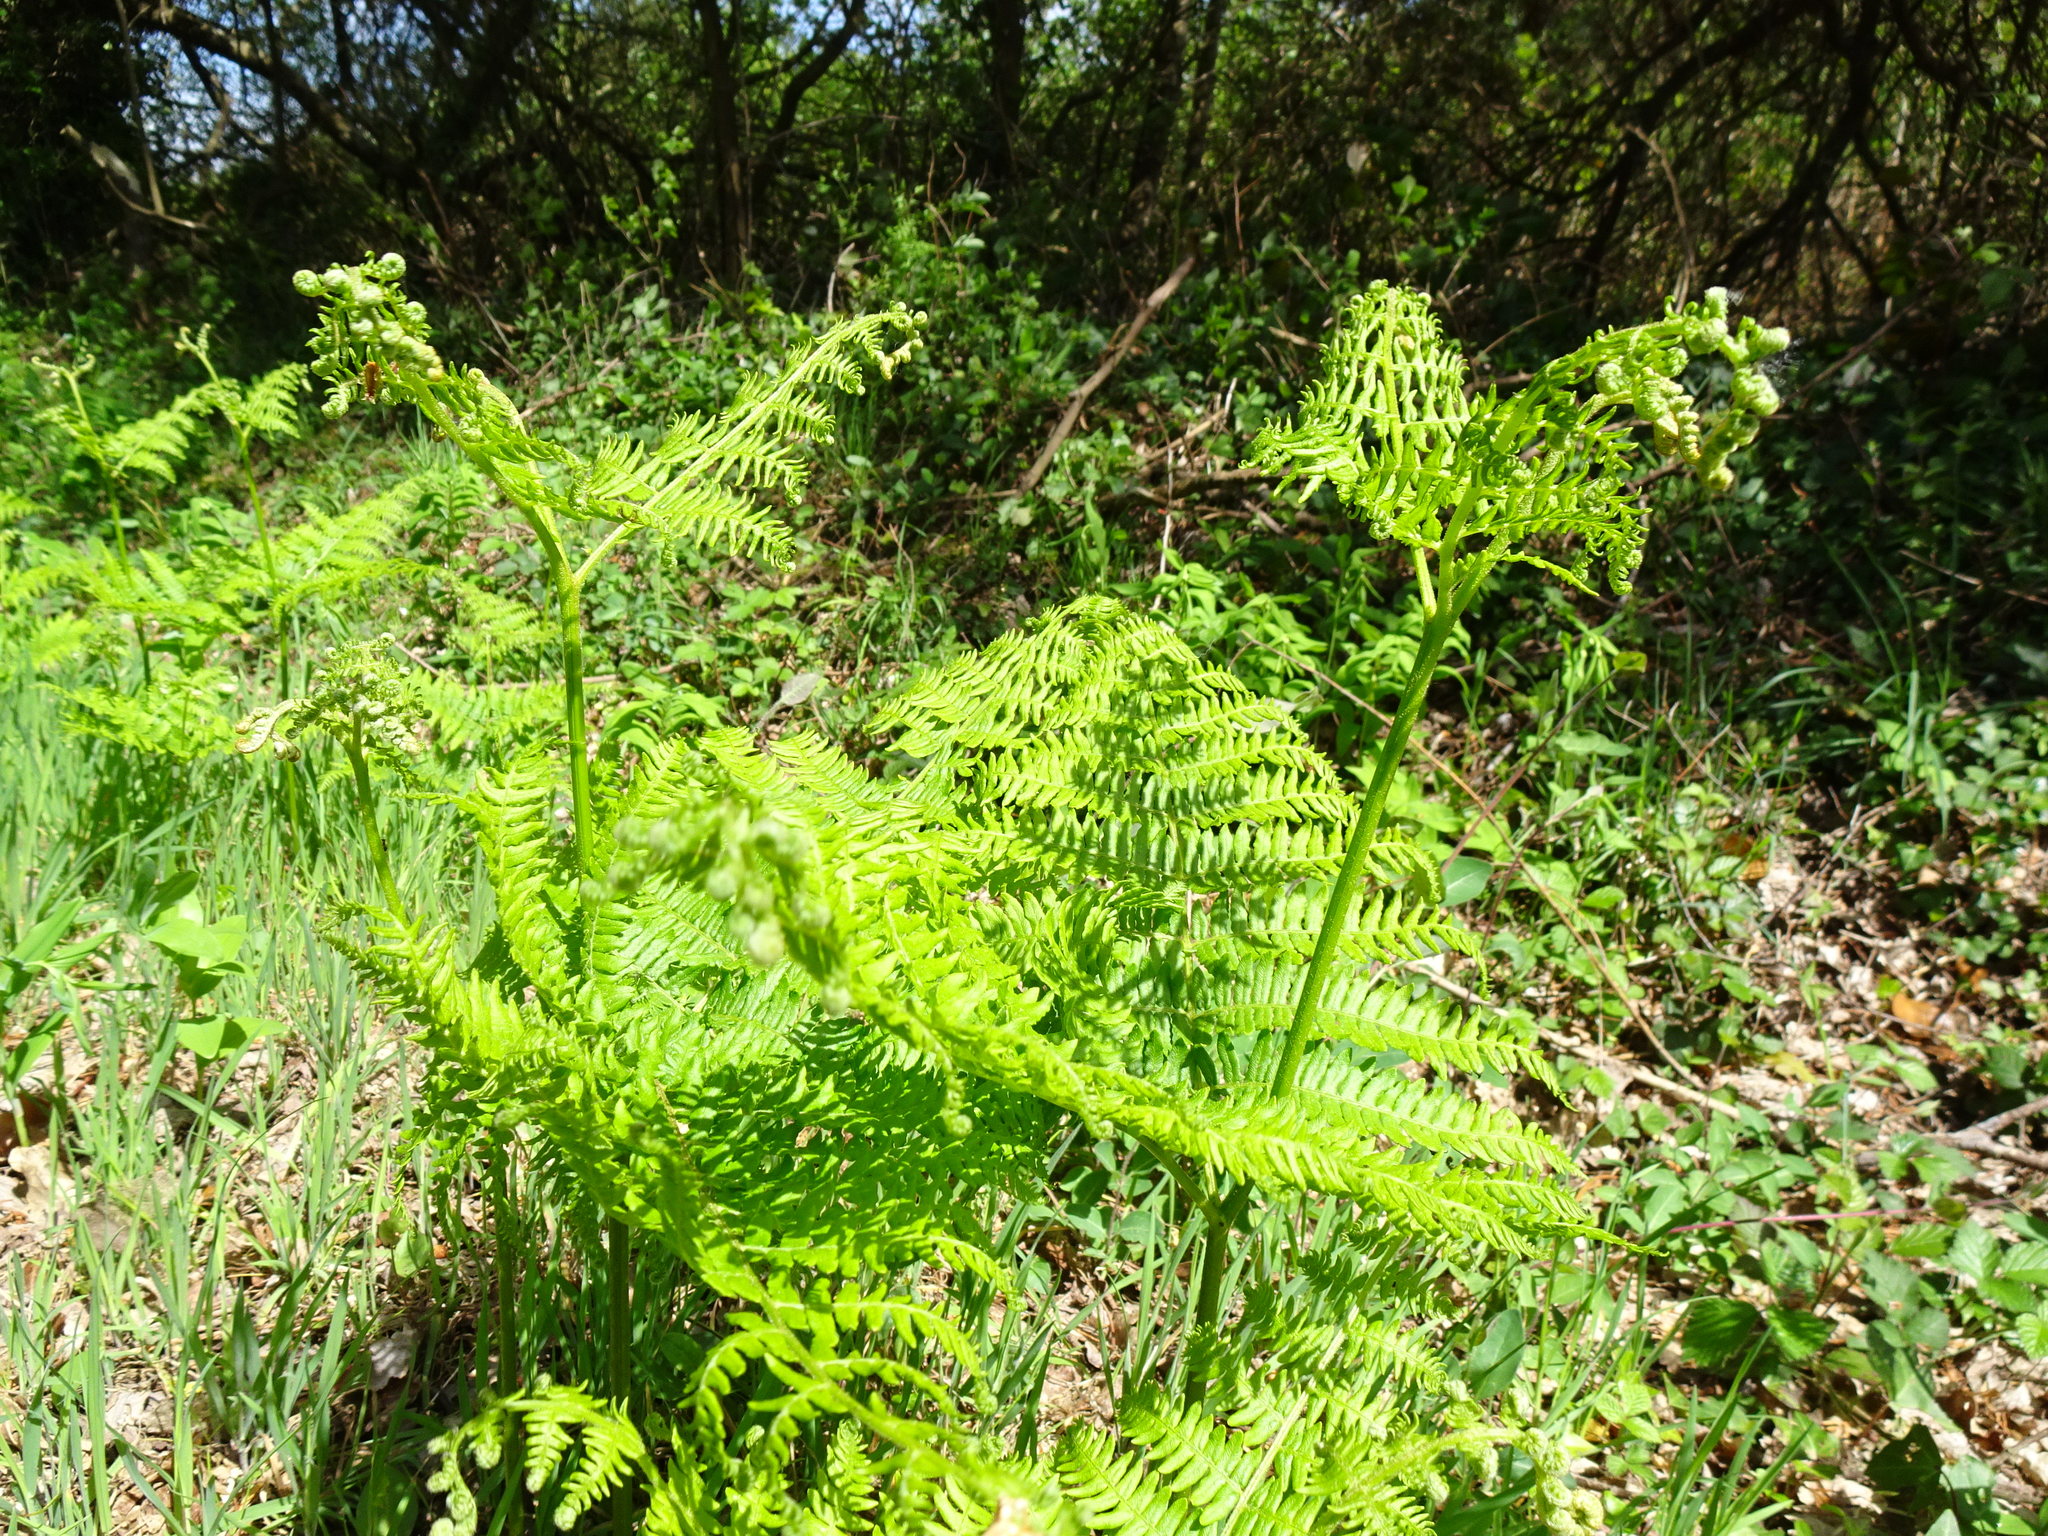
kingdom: Plantae
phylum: Tracheophyta
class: Polypodiopsida
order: Polypodiales
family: Dennstaedtiaceae
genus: Pteridium
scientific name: Pteridium aquilinum
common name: Bracken
